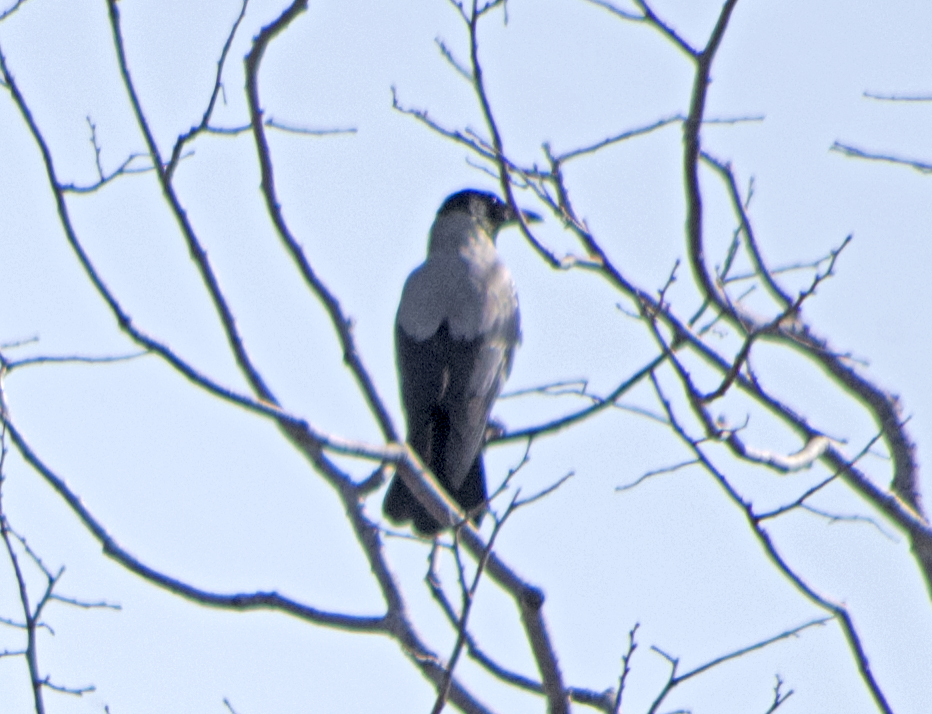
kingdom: Animalia
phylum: Chordata
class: Aves
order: Passeriformes
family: Corvidae
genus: Corvus
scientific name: Corvus cornix
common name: Hooded crow
